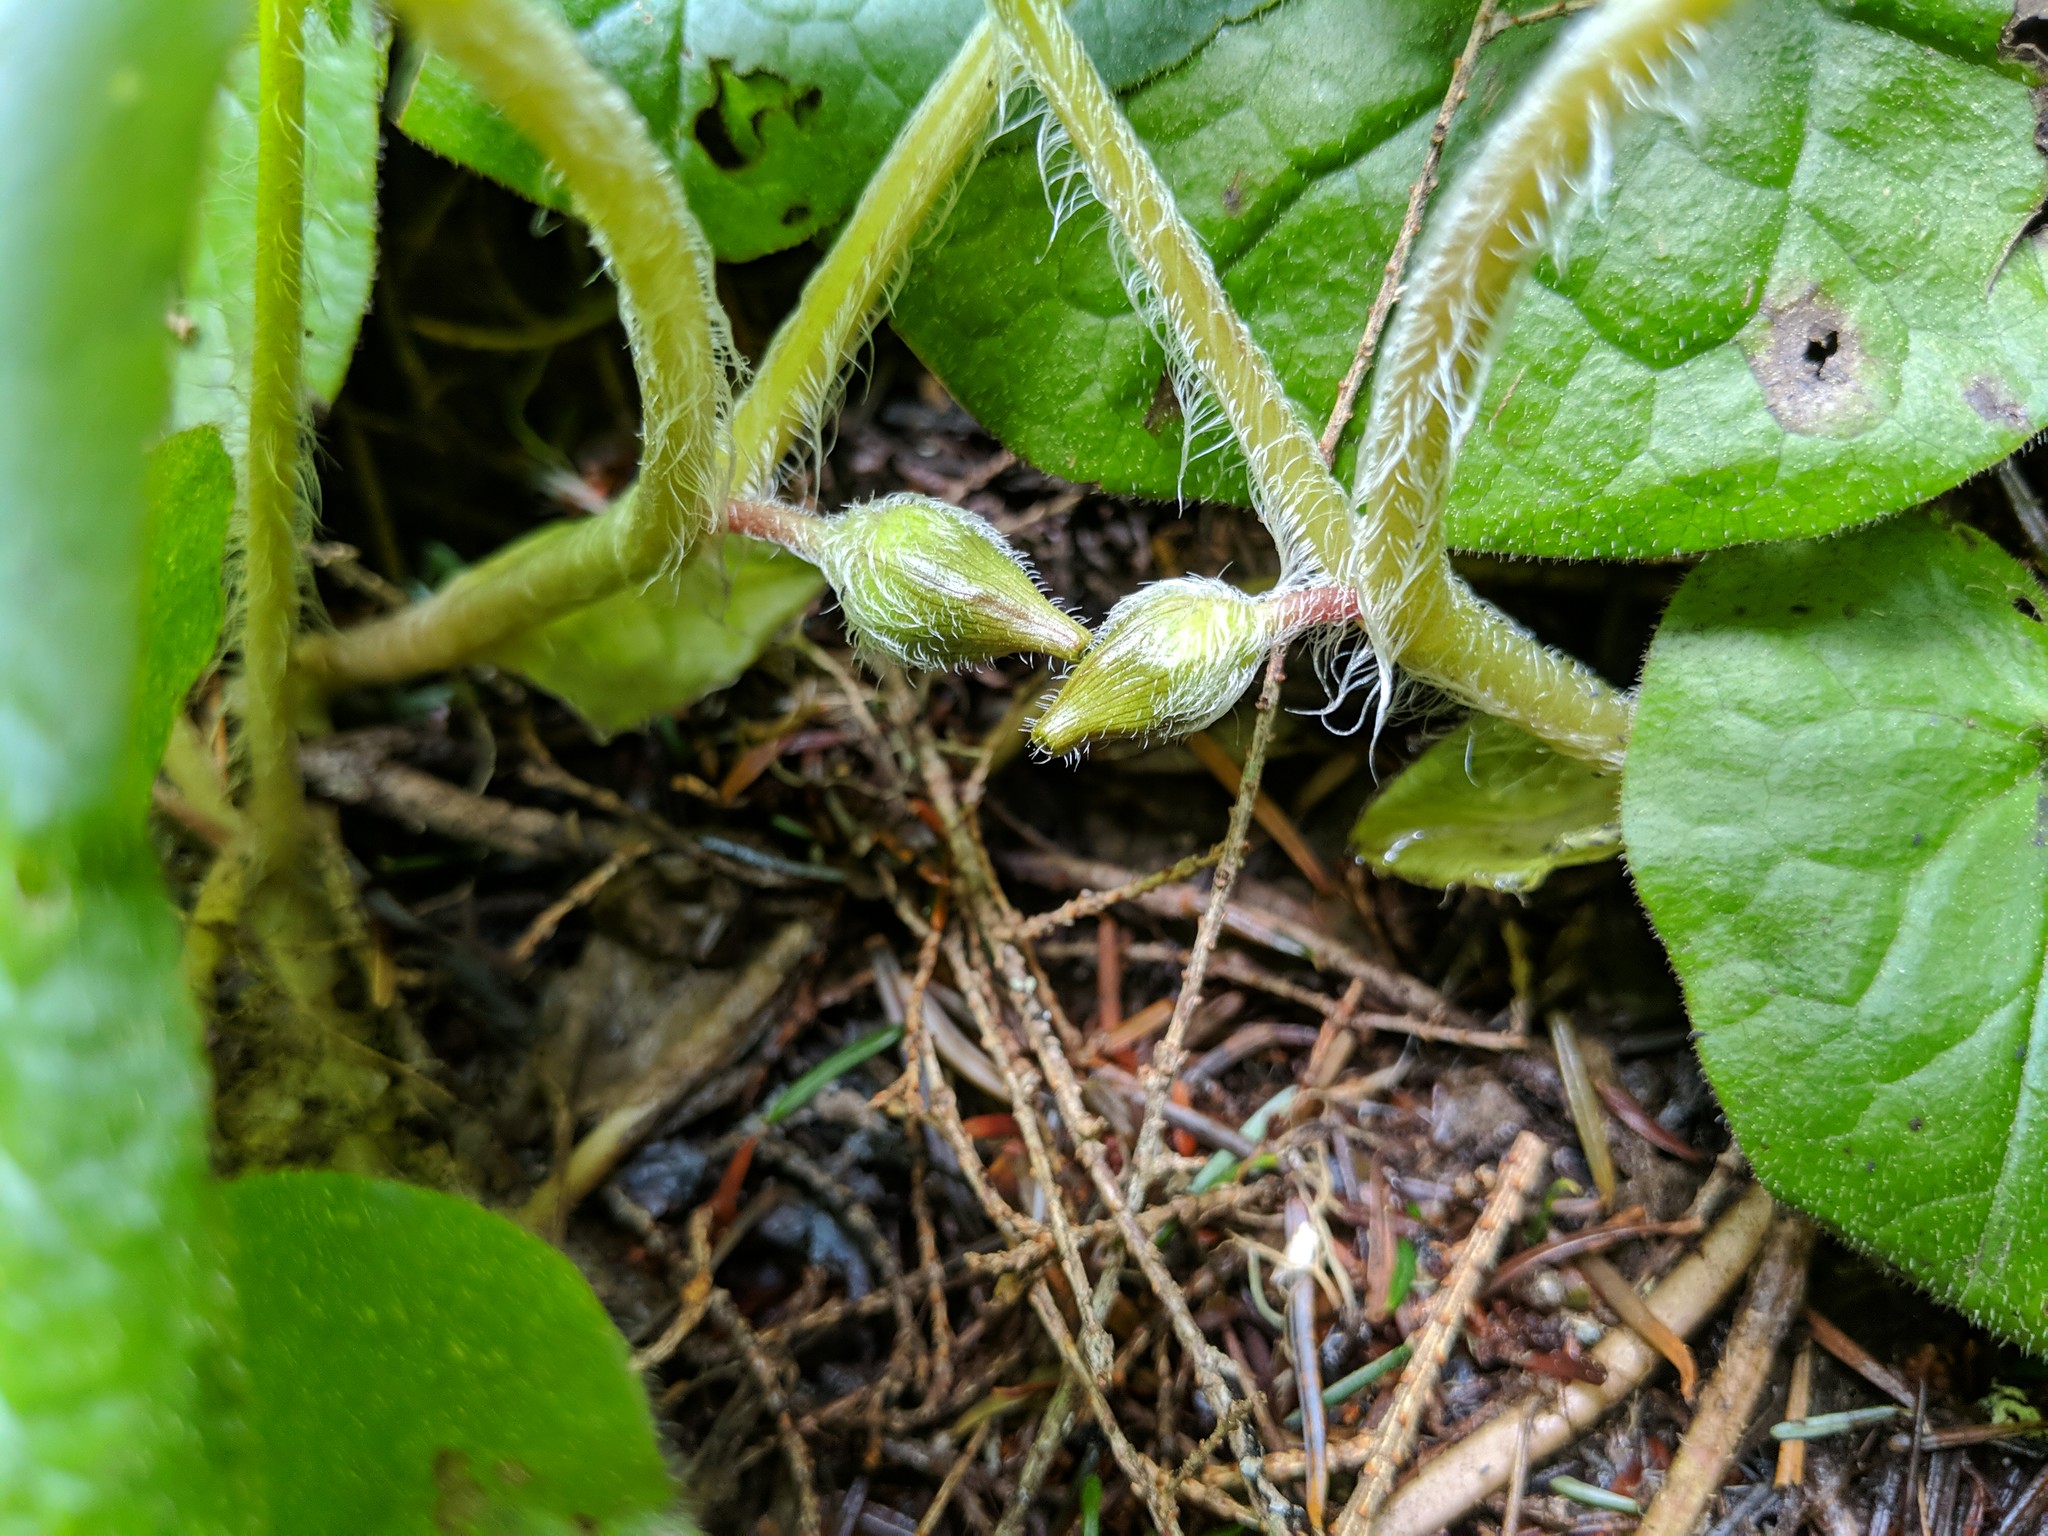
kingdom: Plantae
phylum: Tracheophyta
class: Magnoliopsida
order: Piperales
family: Aristolochiaceae
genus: Asarum
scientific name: Asarum caudatum
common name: Wild ginger
